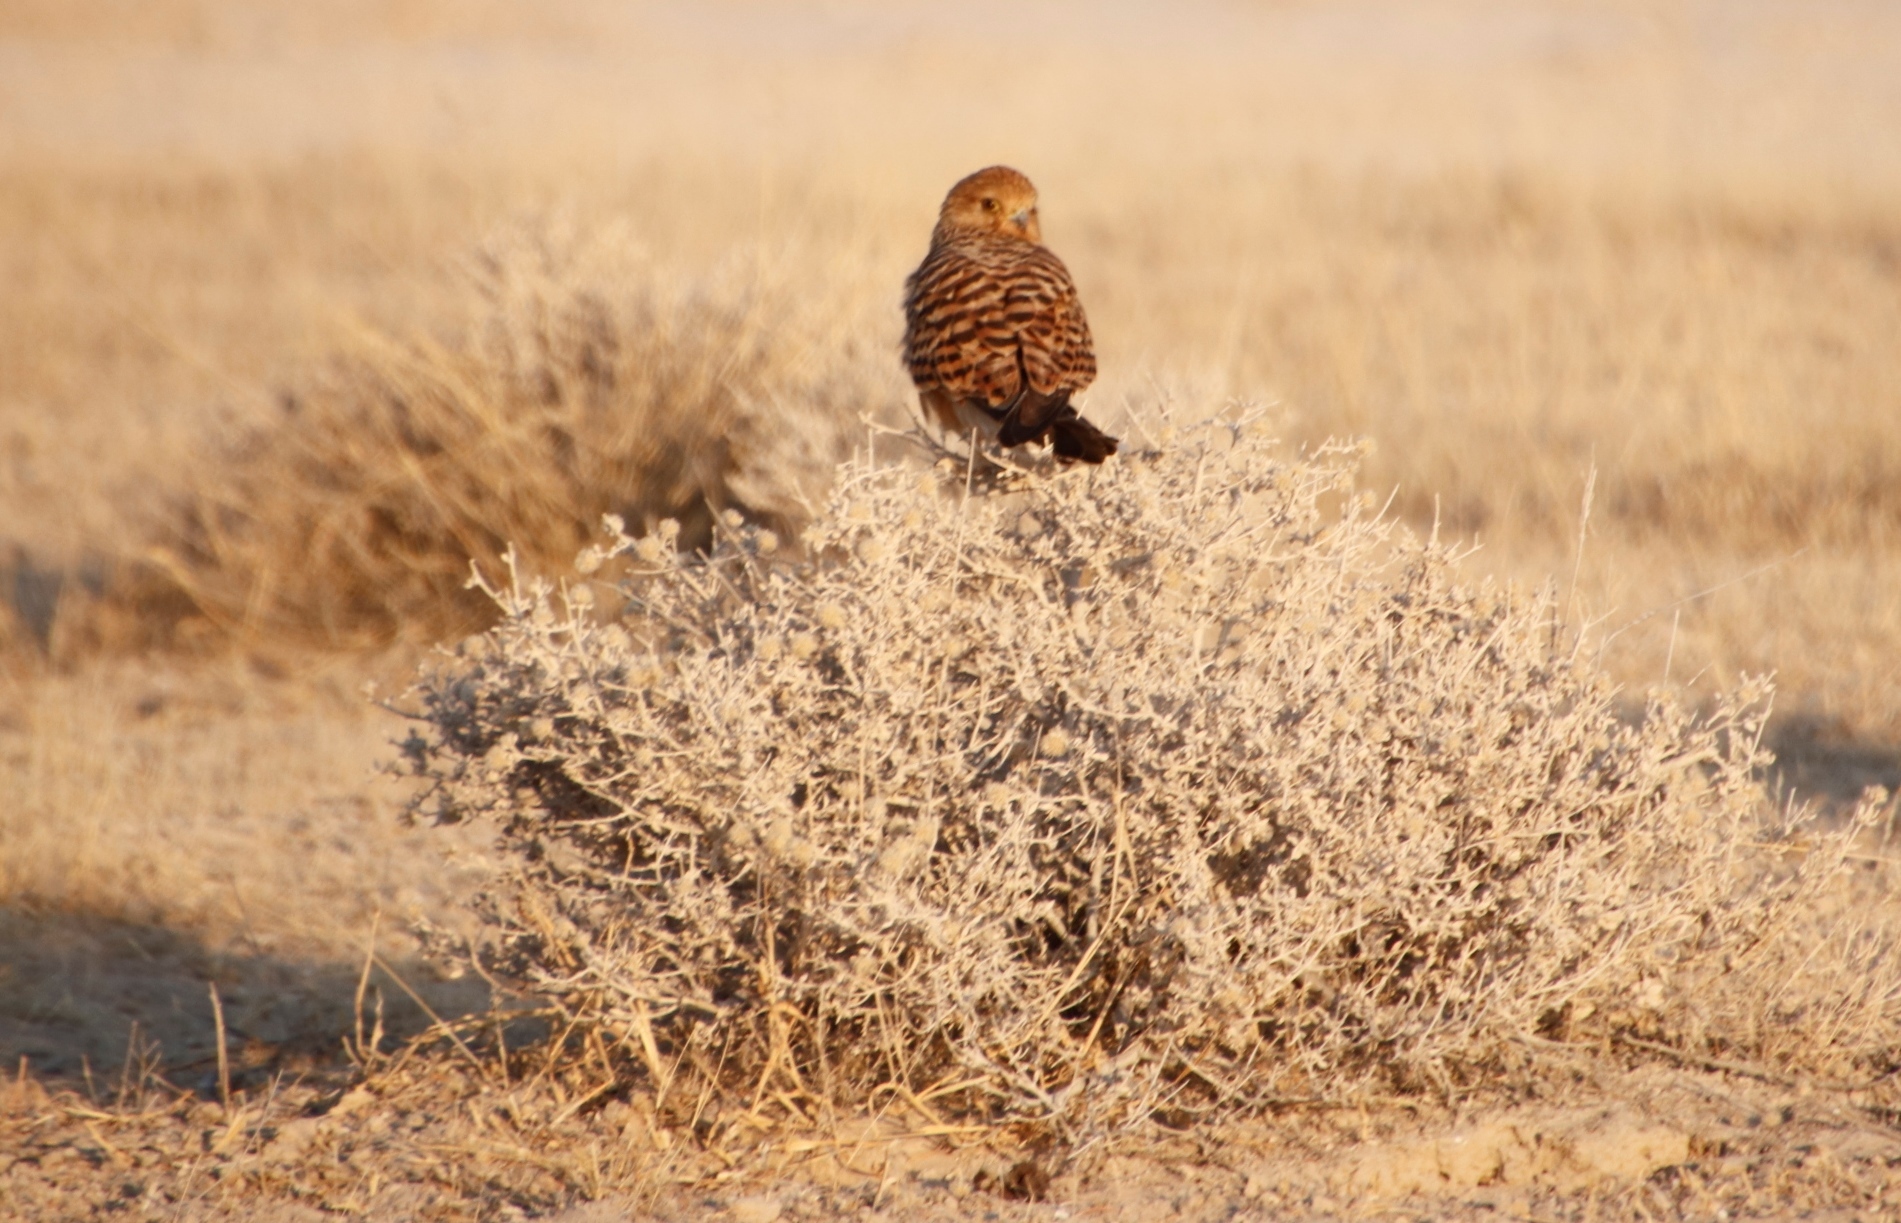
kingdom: Animalia
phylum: Chordata
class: Aves
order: Falconiformes
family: Falconidae
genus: Falco
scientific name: Falco rupicoloides
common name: Greater kestrel
